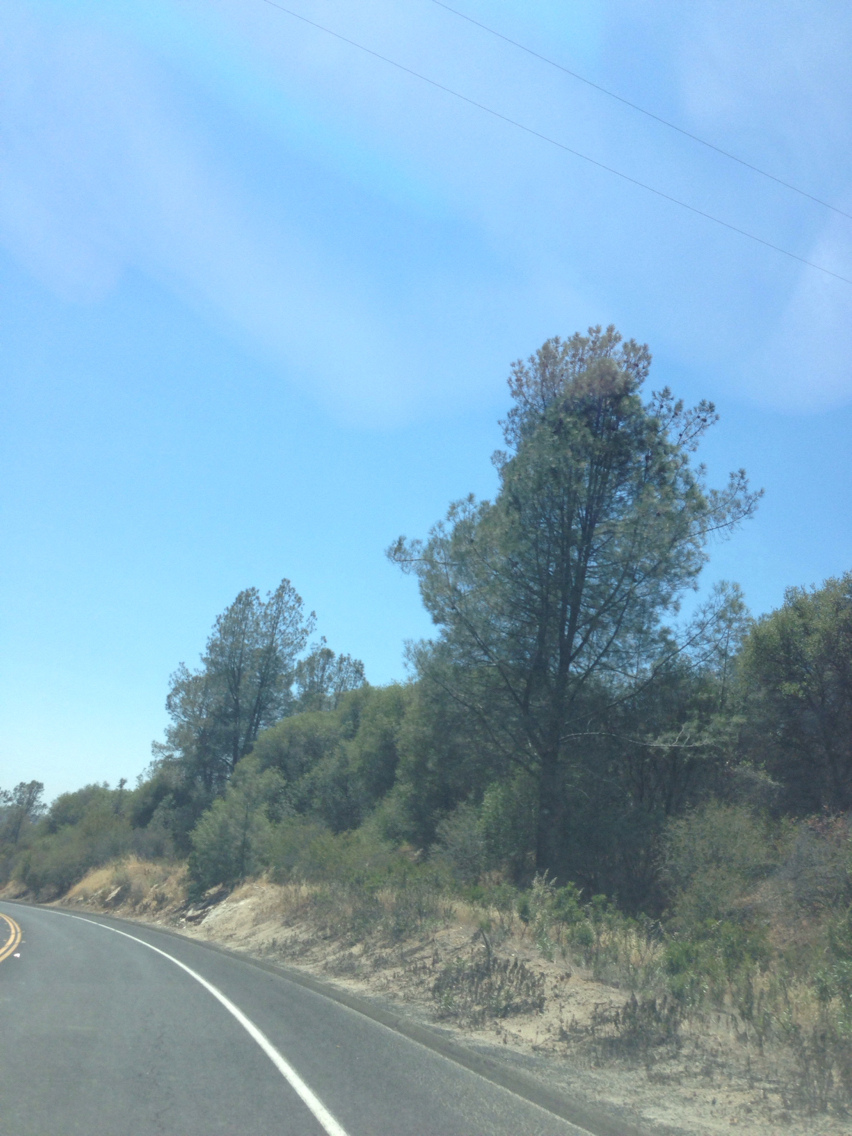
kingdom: Plantae
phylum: Tracheophyta
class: Pinopsida
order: Pinales
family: Pinaceae
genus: Pinus
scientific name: Pinus sabiniana
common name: Bull pine
